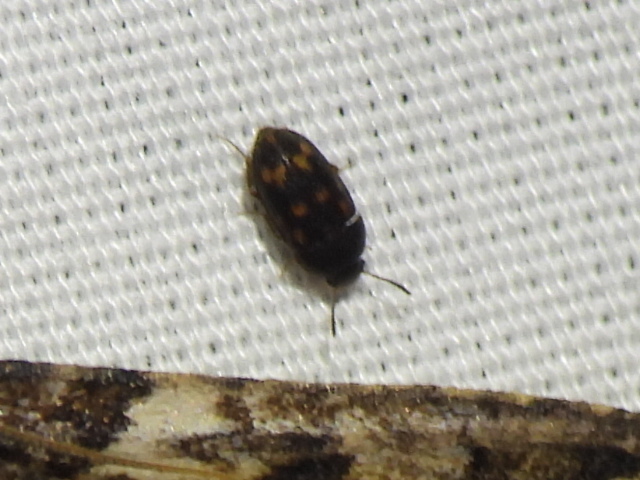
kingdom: Animalia
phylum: Arthropoda
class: Insecta
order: Coleoptera
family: Mycetophagidae
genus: Litargus
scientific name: Litargus sexpunctatus
